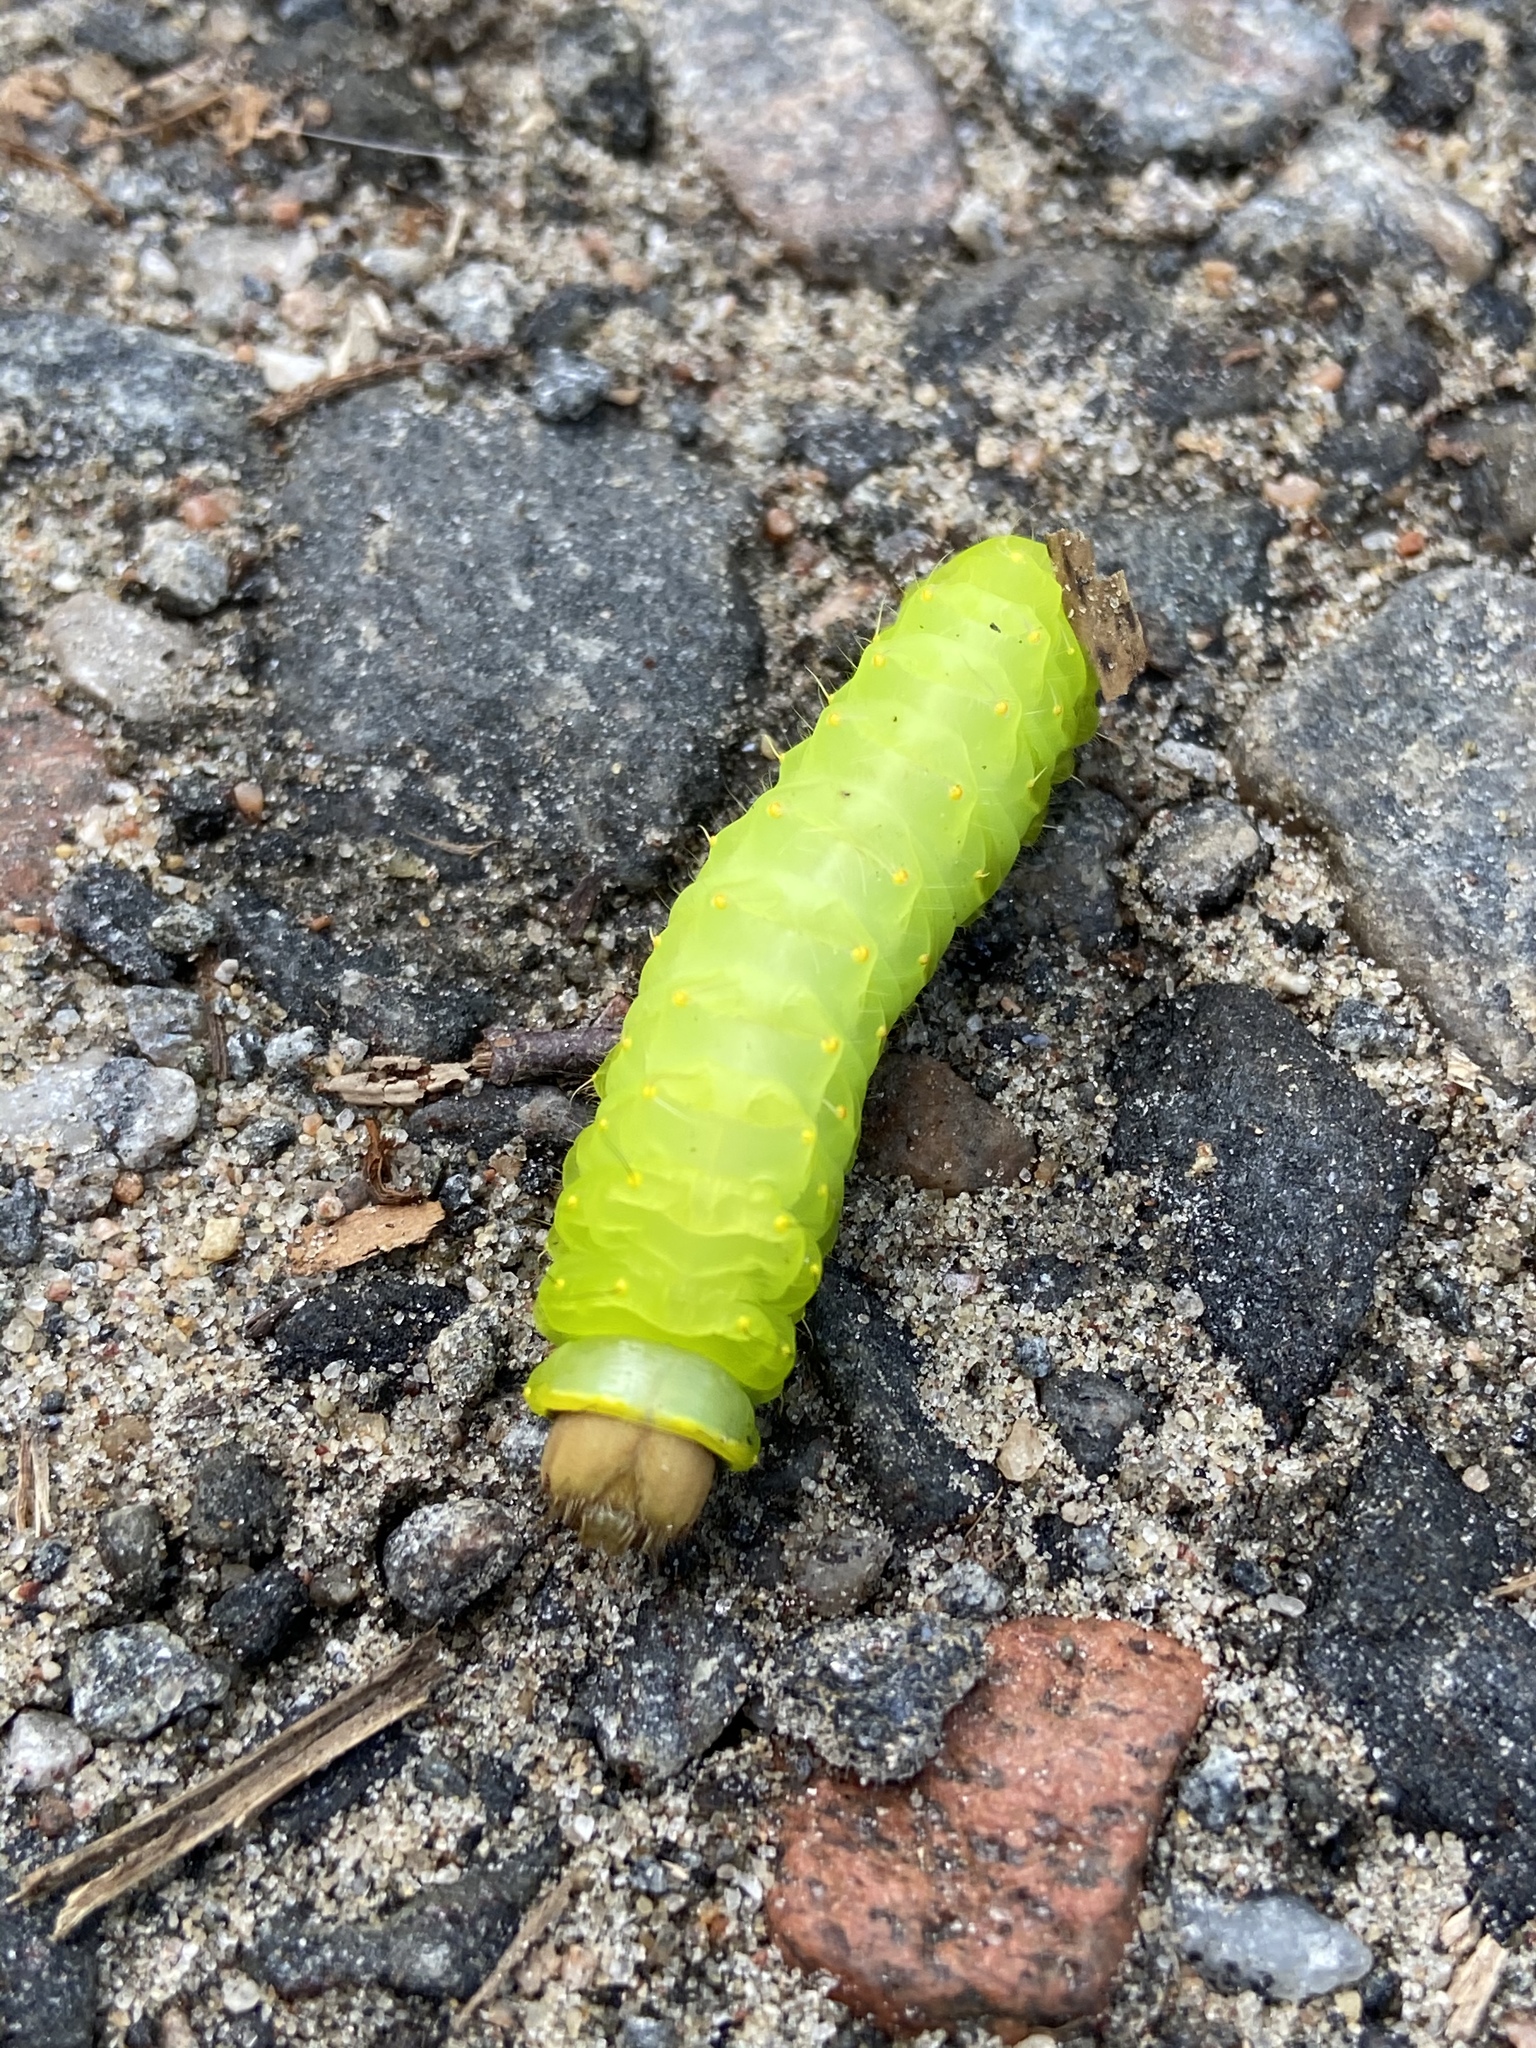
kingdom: Animalia
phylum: Arthropoda
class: Insecta
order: Lepidoptera
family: Saturniidae
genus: Antheraea
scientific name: Antheraea polyphemus
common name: Polyphemus moth
